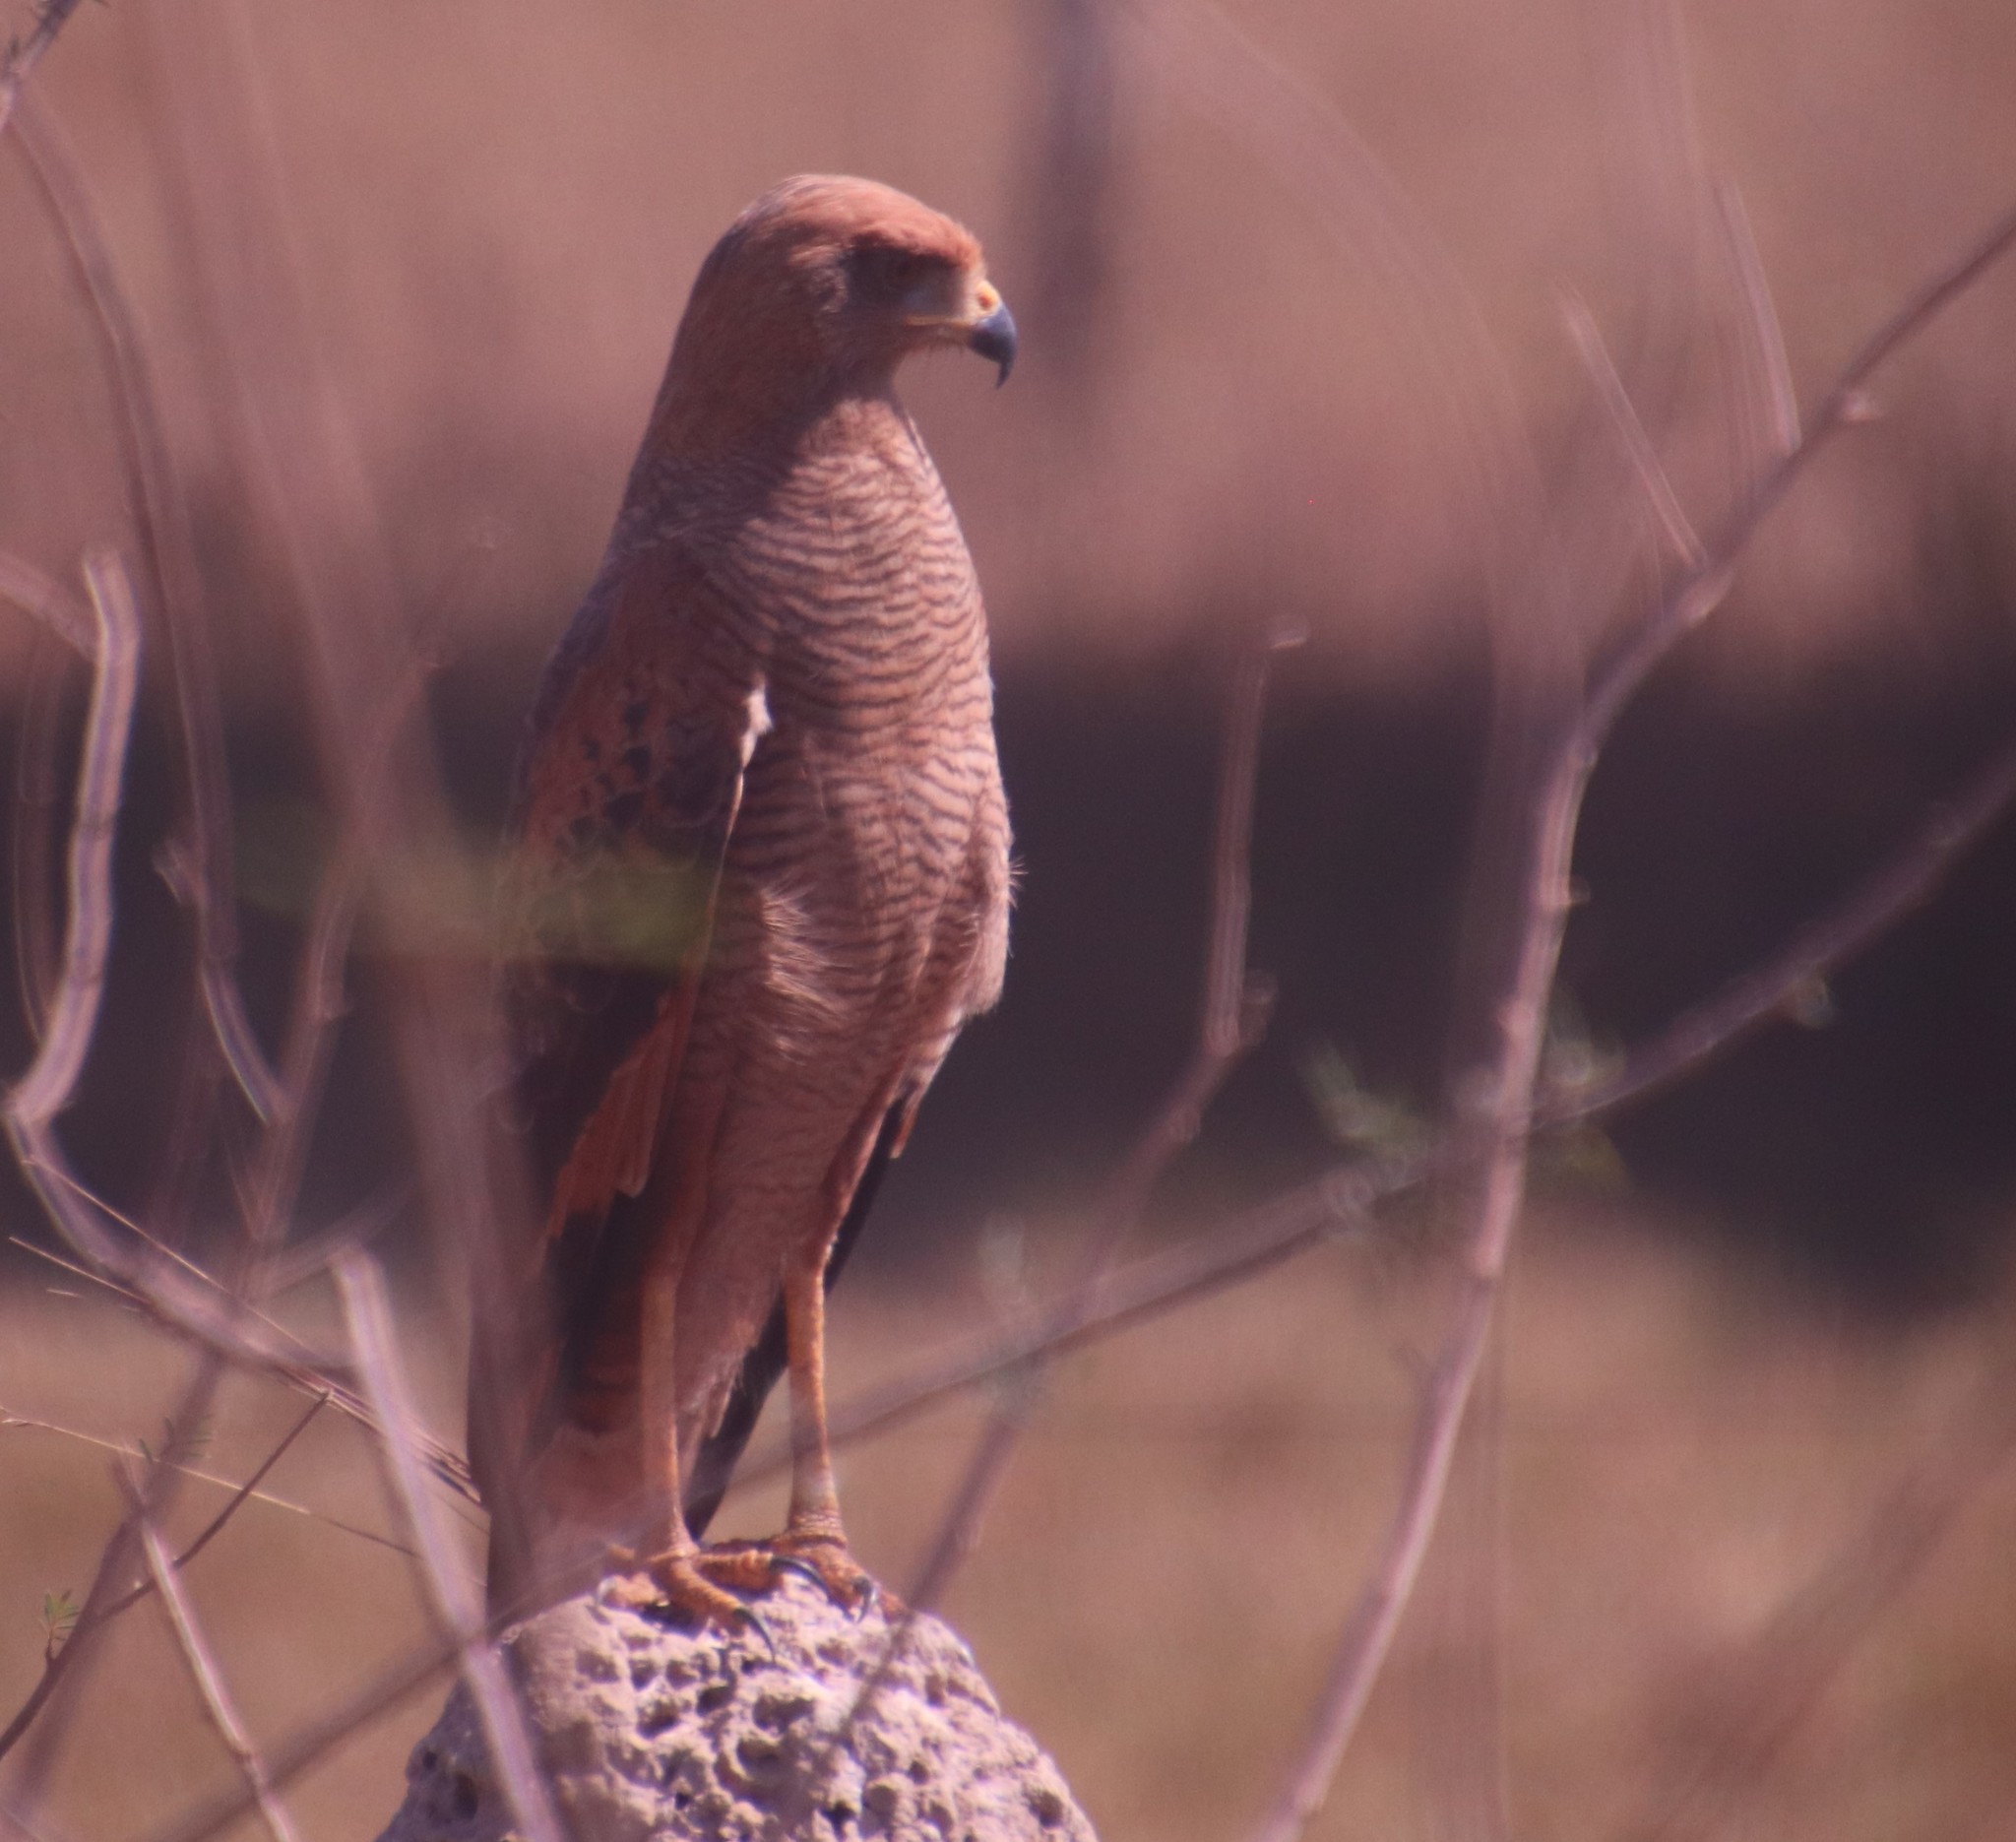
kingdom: Animalia
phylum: Chordata
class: Aves
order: Accipitriformes
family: Accipitridae
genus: Buteogallus
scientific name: Buteogallus meridionalis
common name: Savanna hawk
